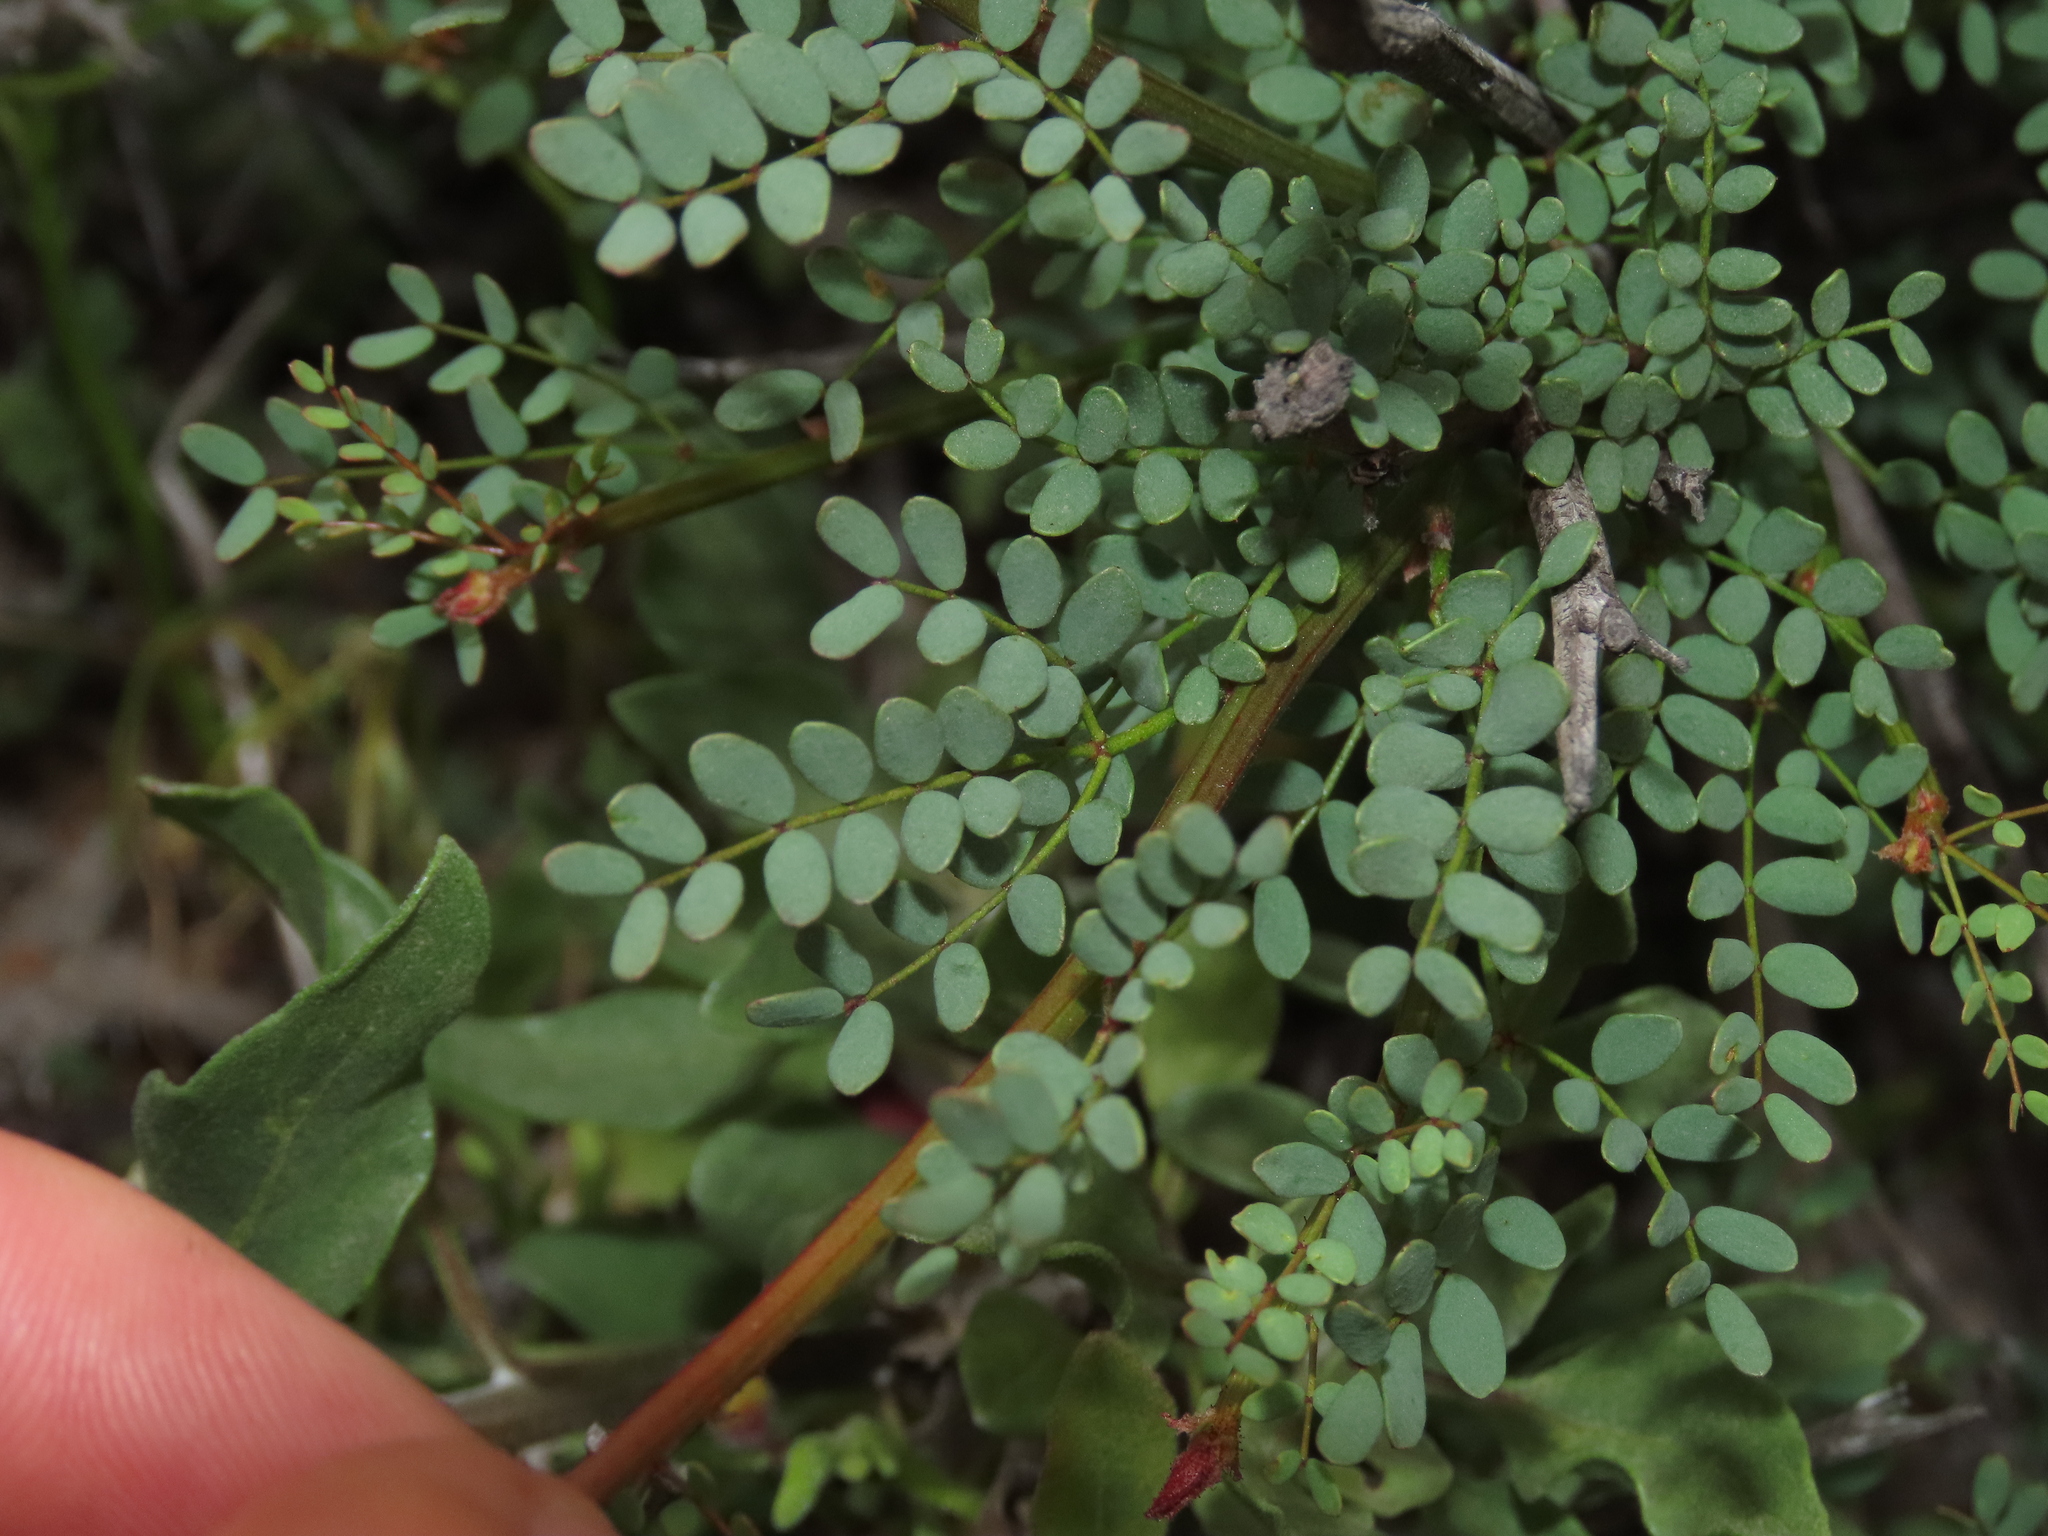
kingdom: Plantae
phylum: Tracheophyta
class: Magnoliopsida
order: Fabales
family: Fabaceae
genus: Erythrostemon
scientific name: Erythrostemon angulatus
